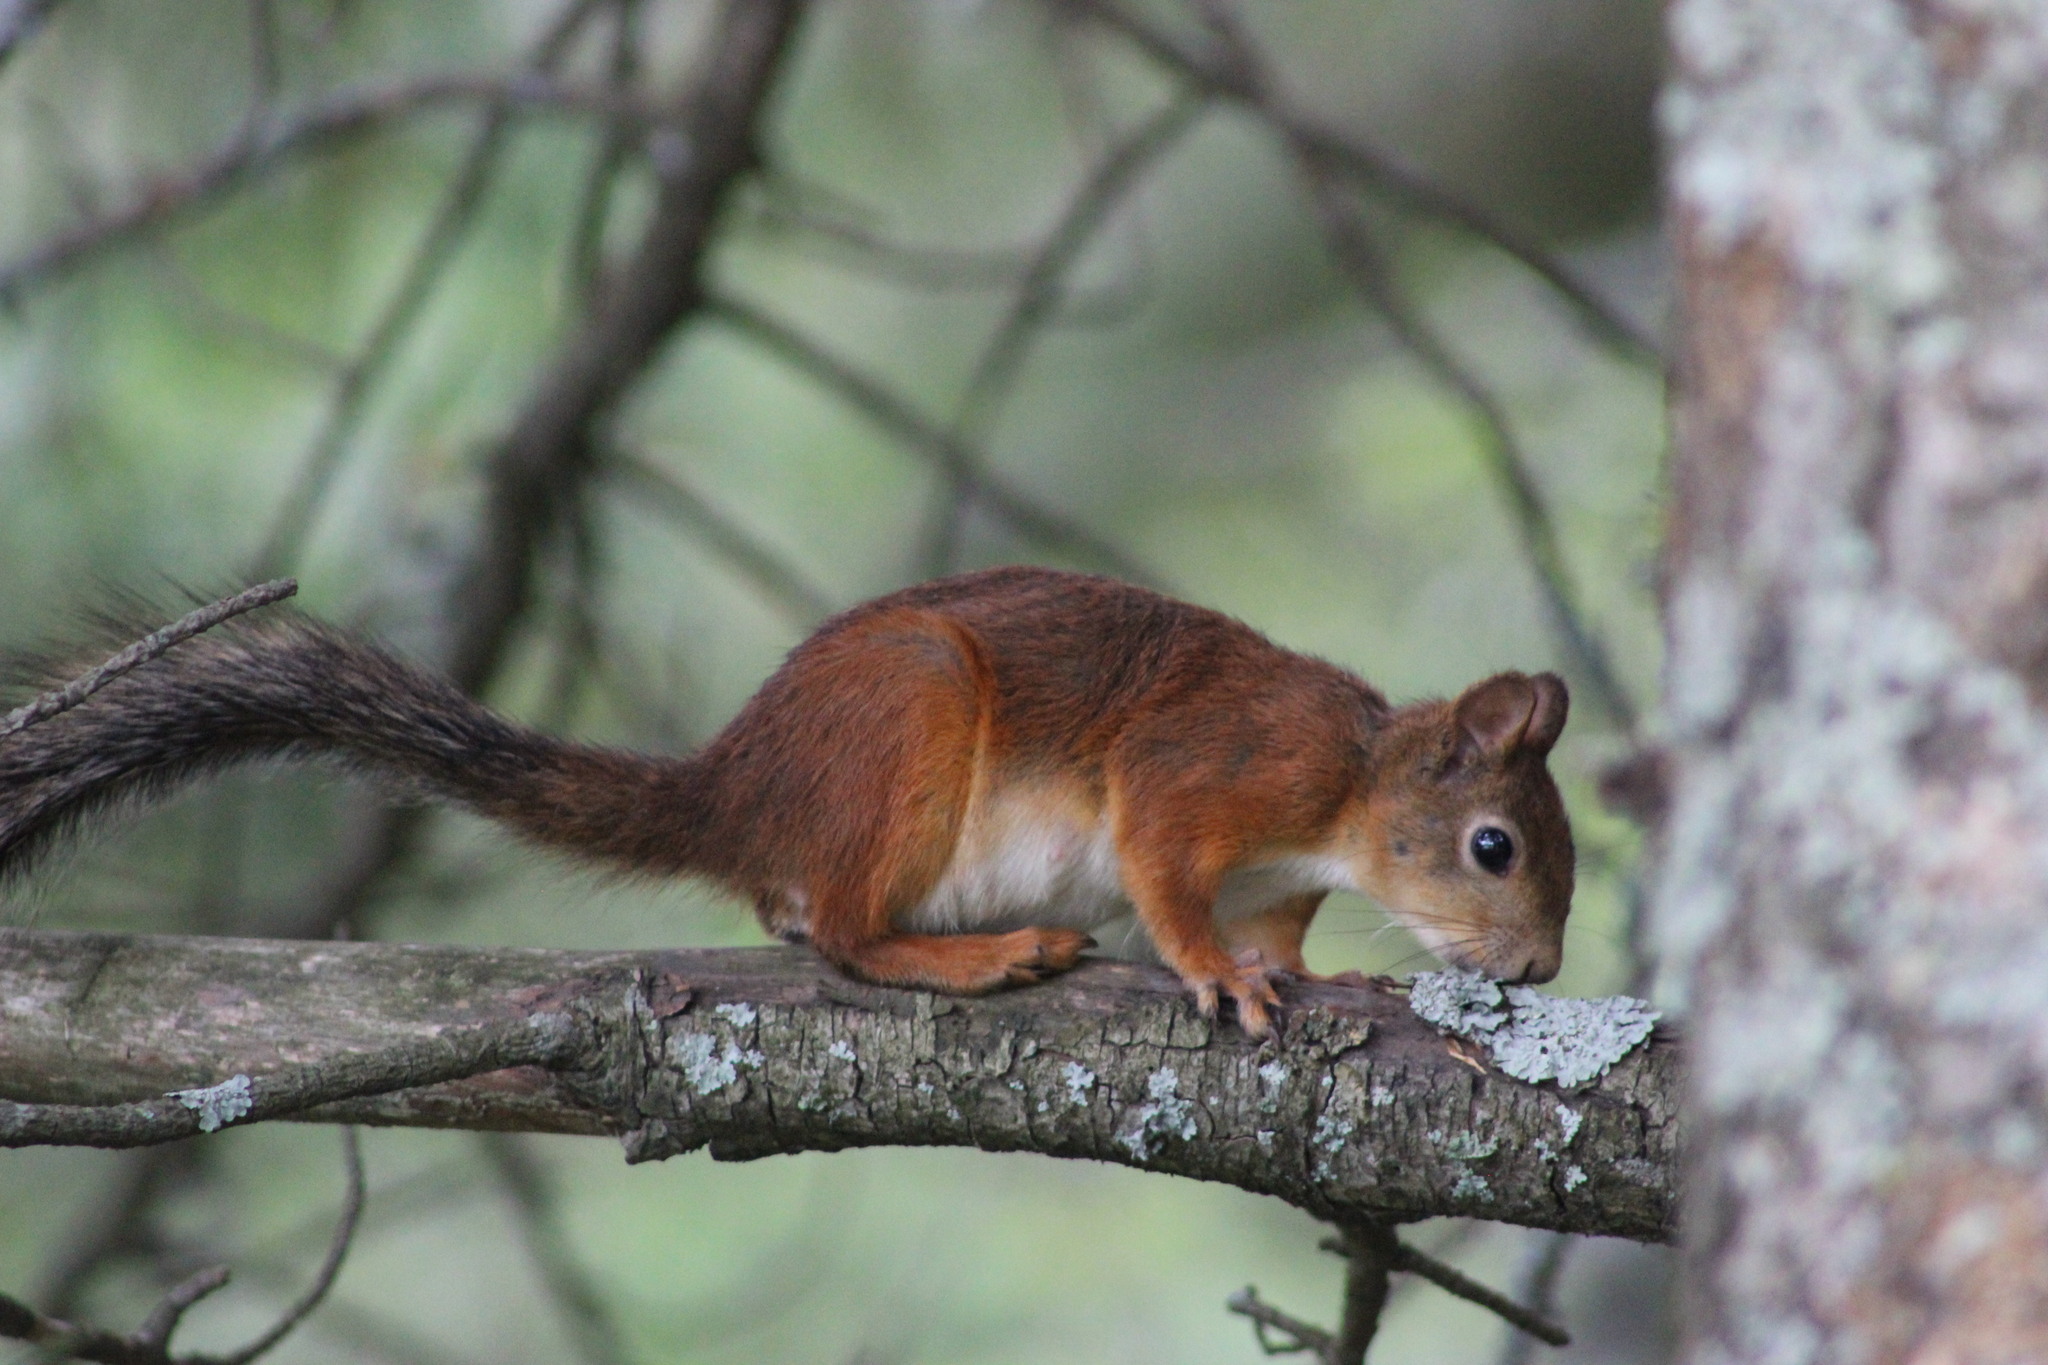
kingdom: Animalia
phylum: Chordata
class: Mammalia
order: Rodentia
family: Sciuridae
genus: Sciurus
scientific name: Sciurus vulgaris
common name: Eurasian red squirrel
